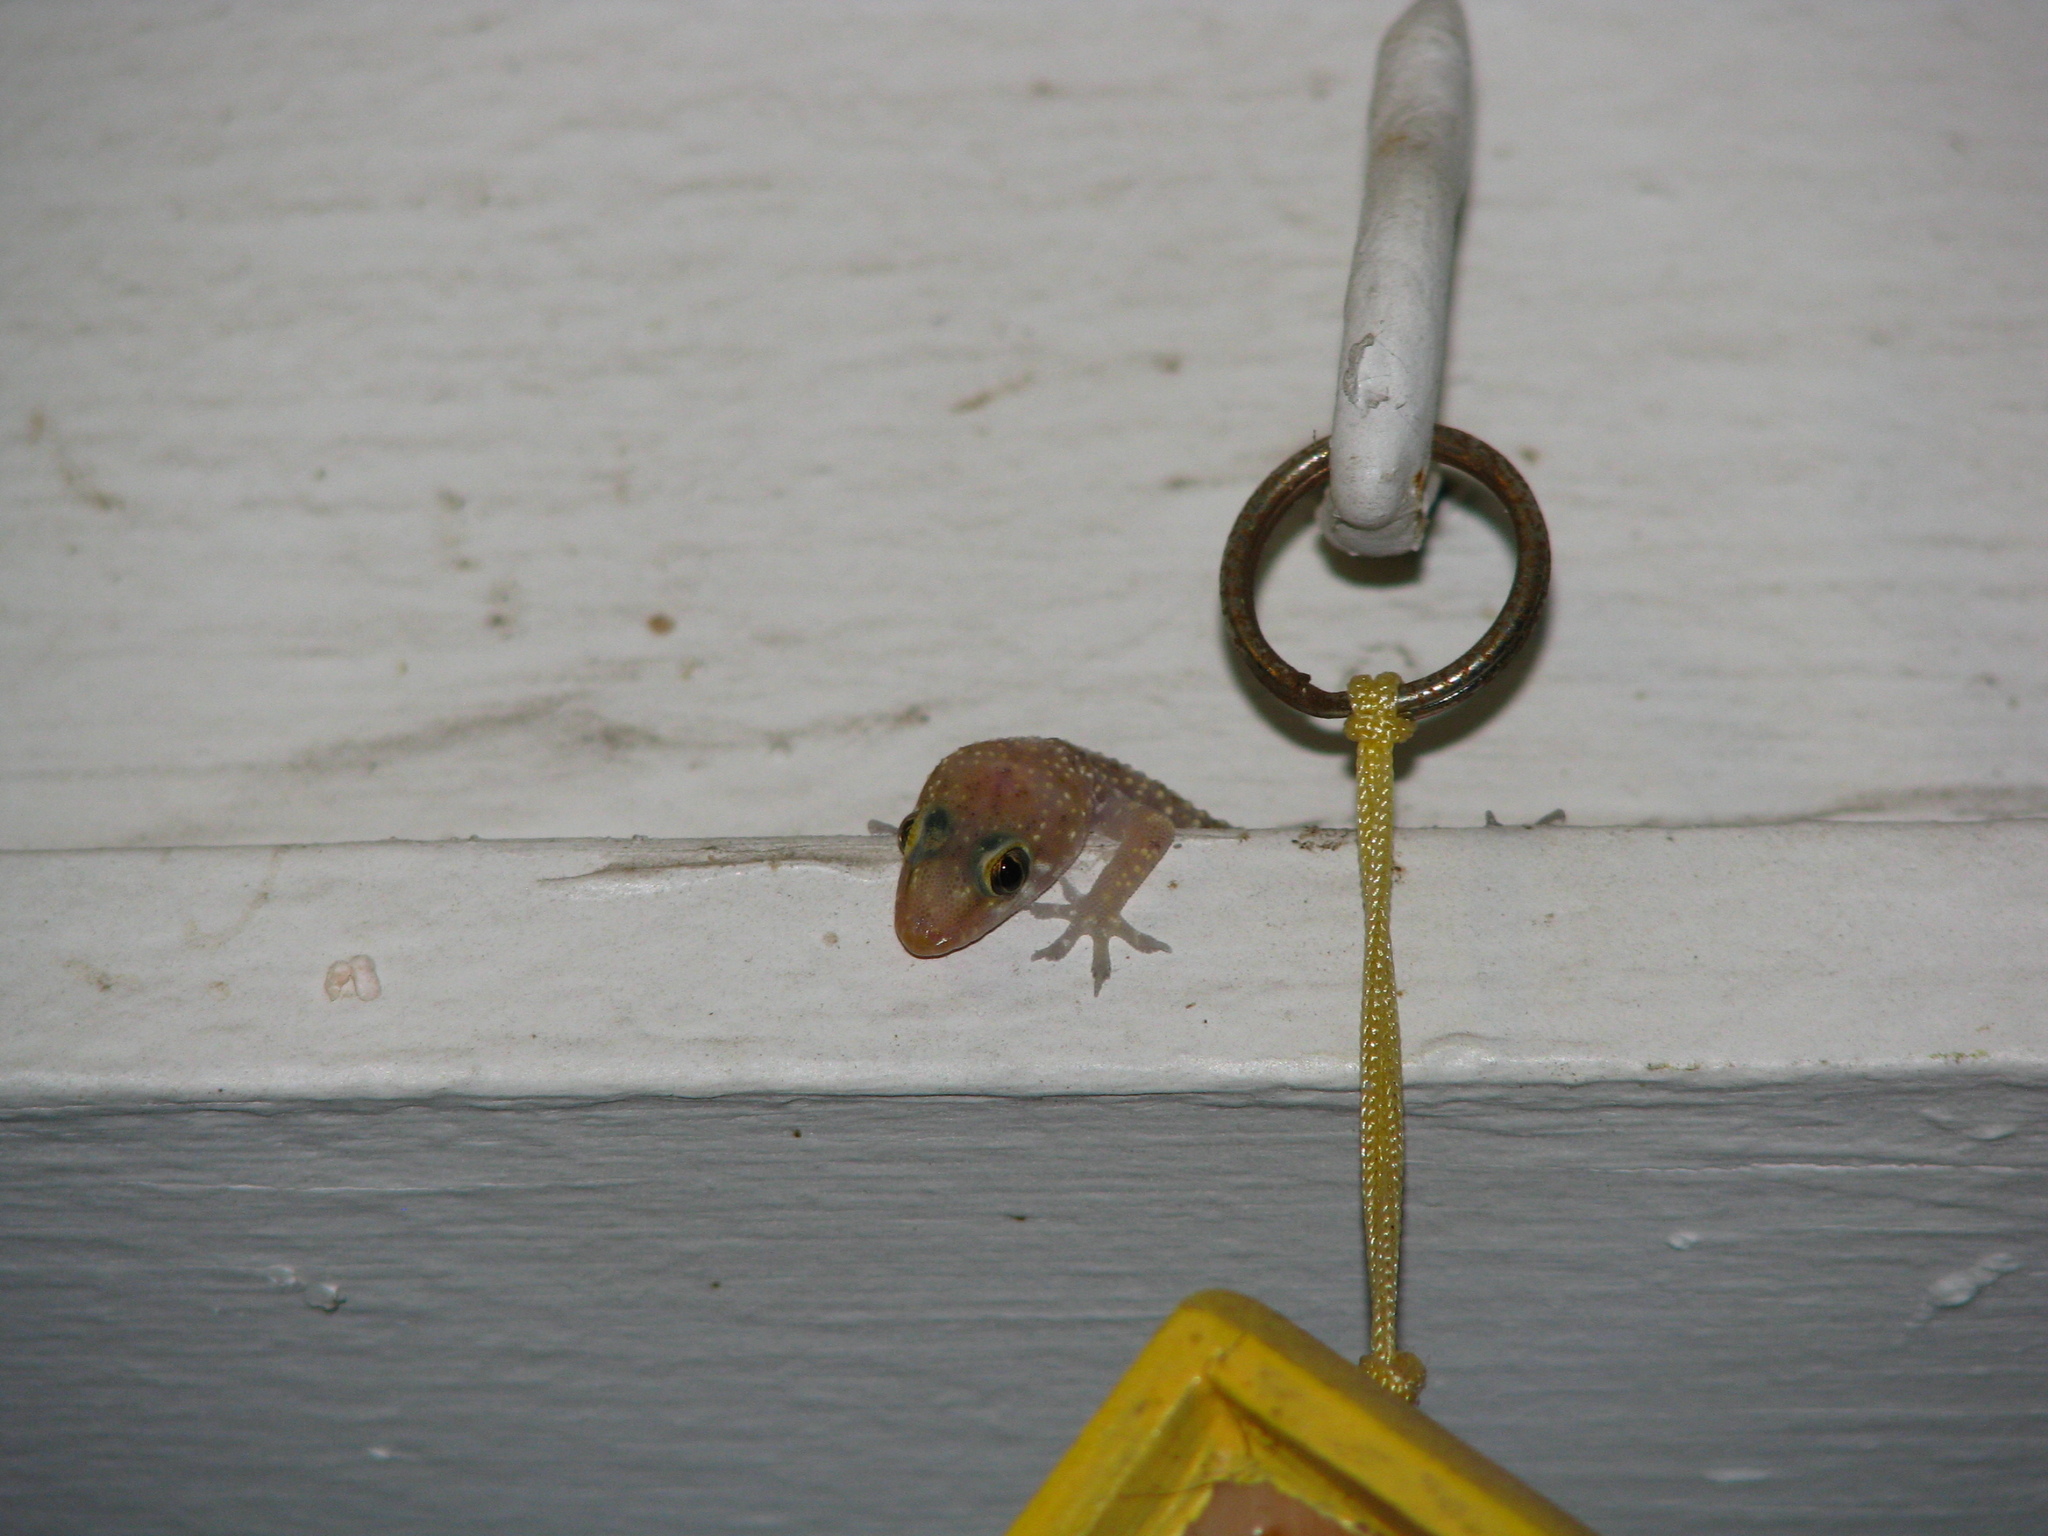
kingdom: Animalia
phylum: Chordata
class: Squamata
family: Gekkonidae
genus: Hemidactylus
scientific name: Hemidactylus turcicus
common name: Turkish gecko
